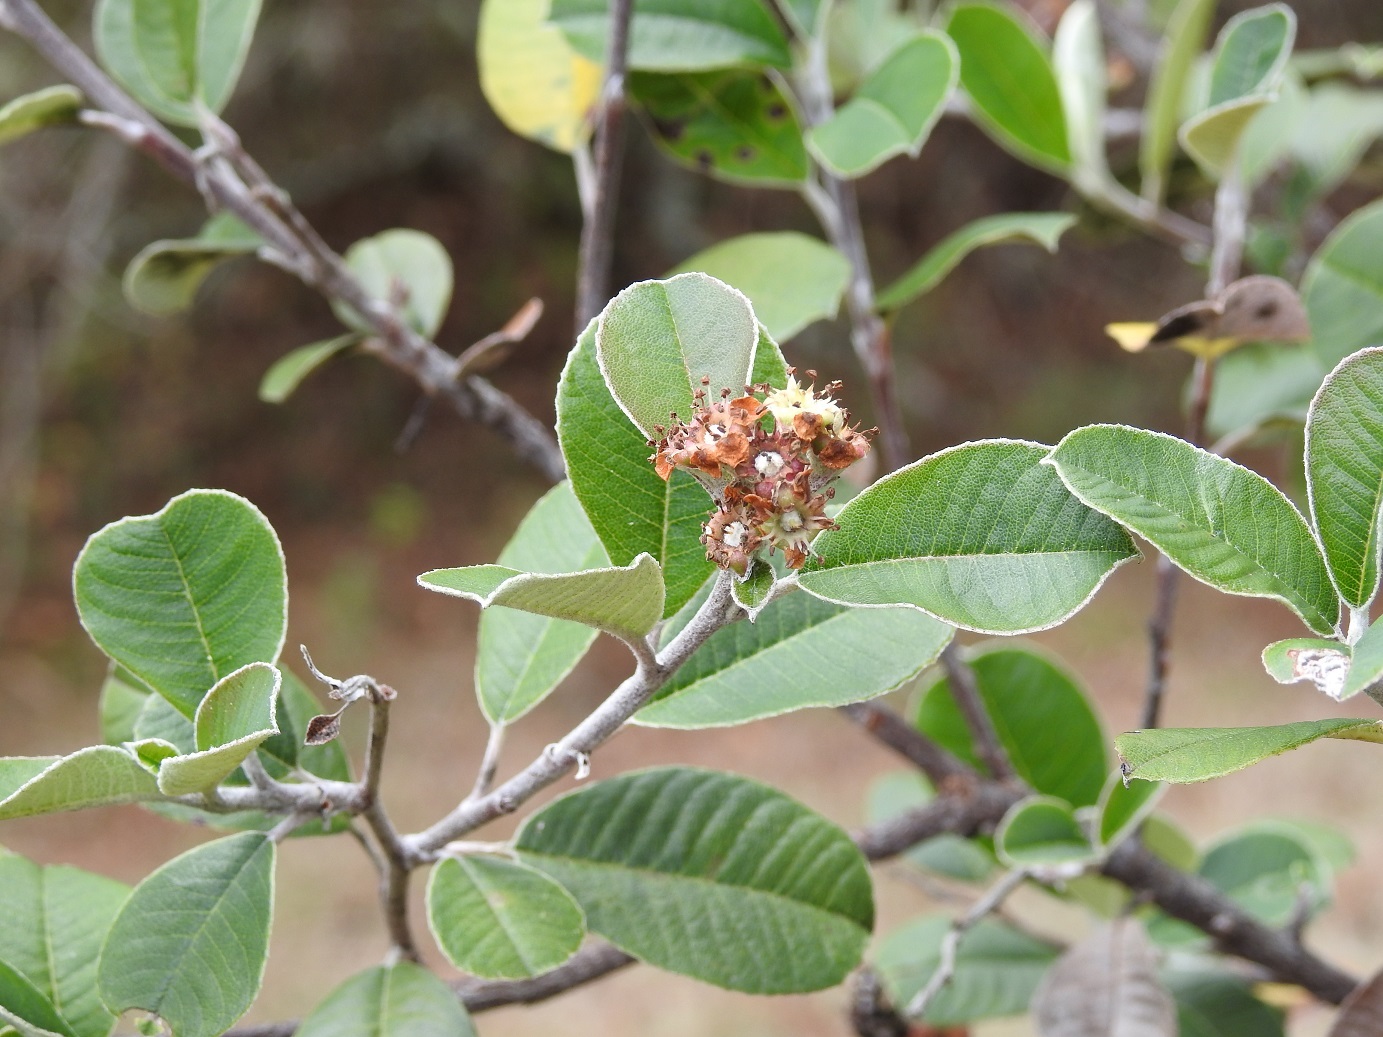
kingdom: Plantae
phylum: Tracheophyta
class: Magnoliopsida
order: Rosales
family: Rosaceae
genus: Malacomeles
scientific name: Malacomeles nervosa
